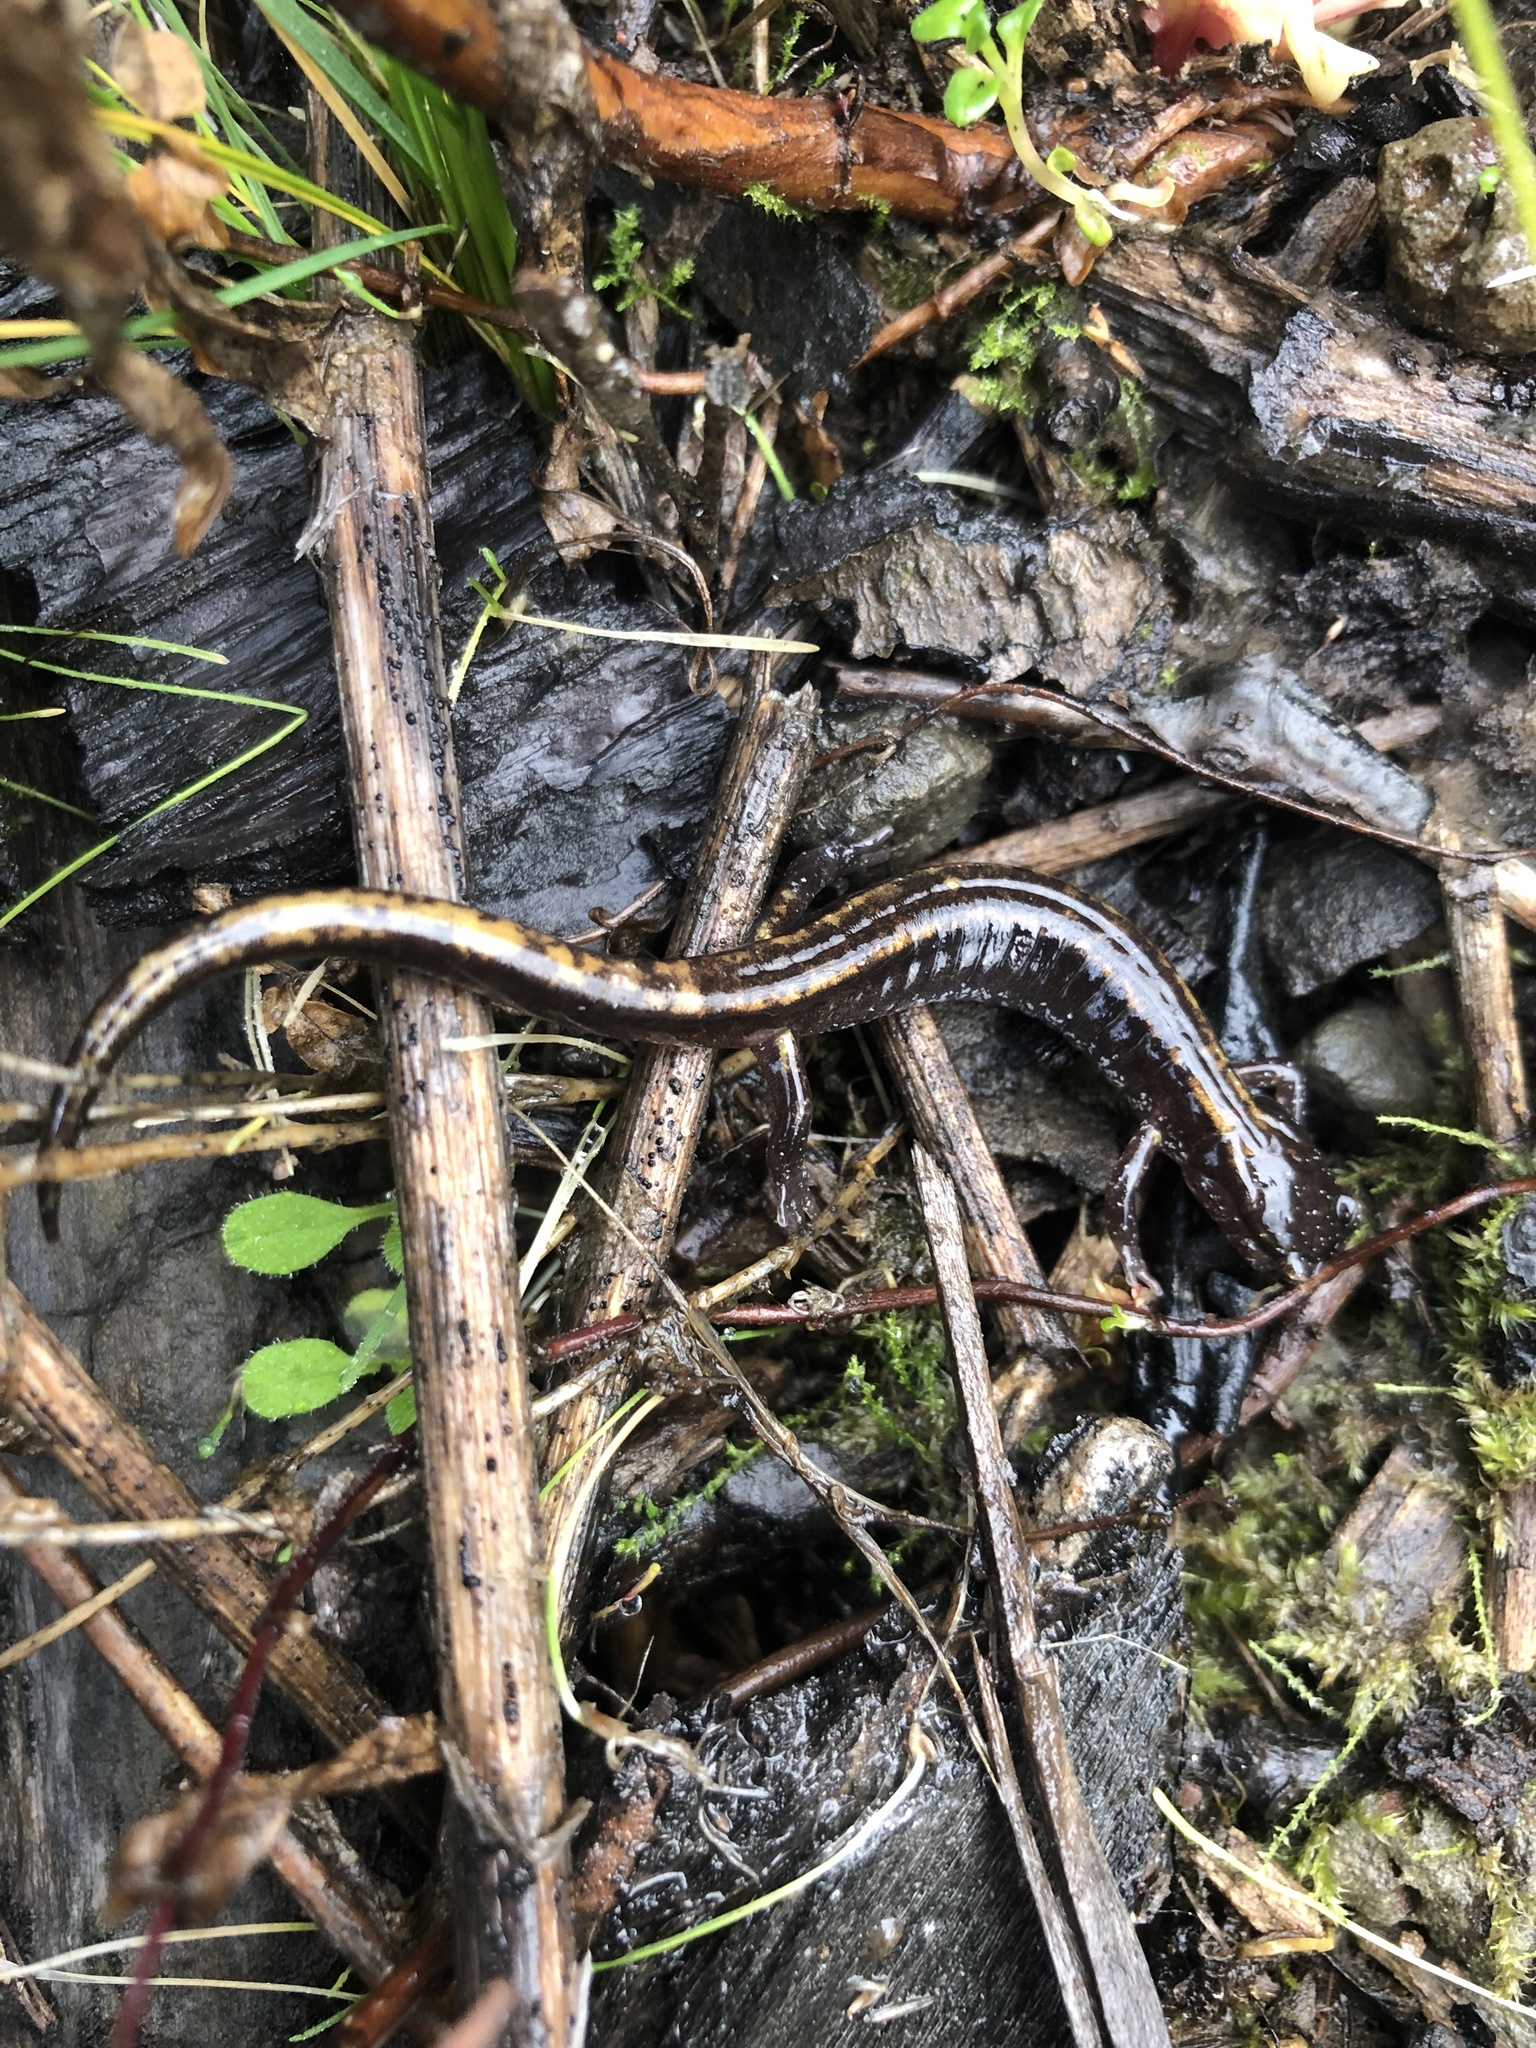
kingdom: Animalia
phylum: Chordata
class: Amphibia
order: Caudata
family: Plethodontidae
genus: Plethodon
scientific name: Plethodon vehiculum
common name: Western red-backed salamander
